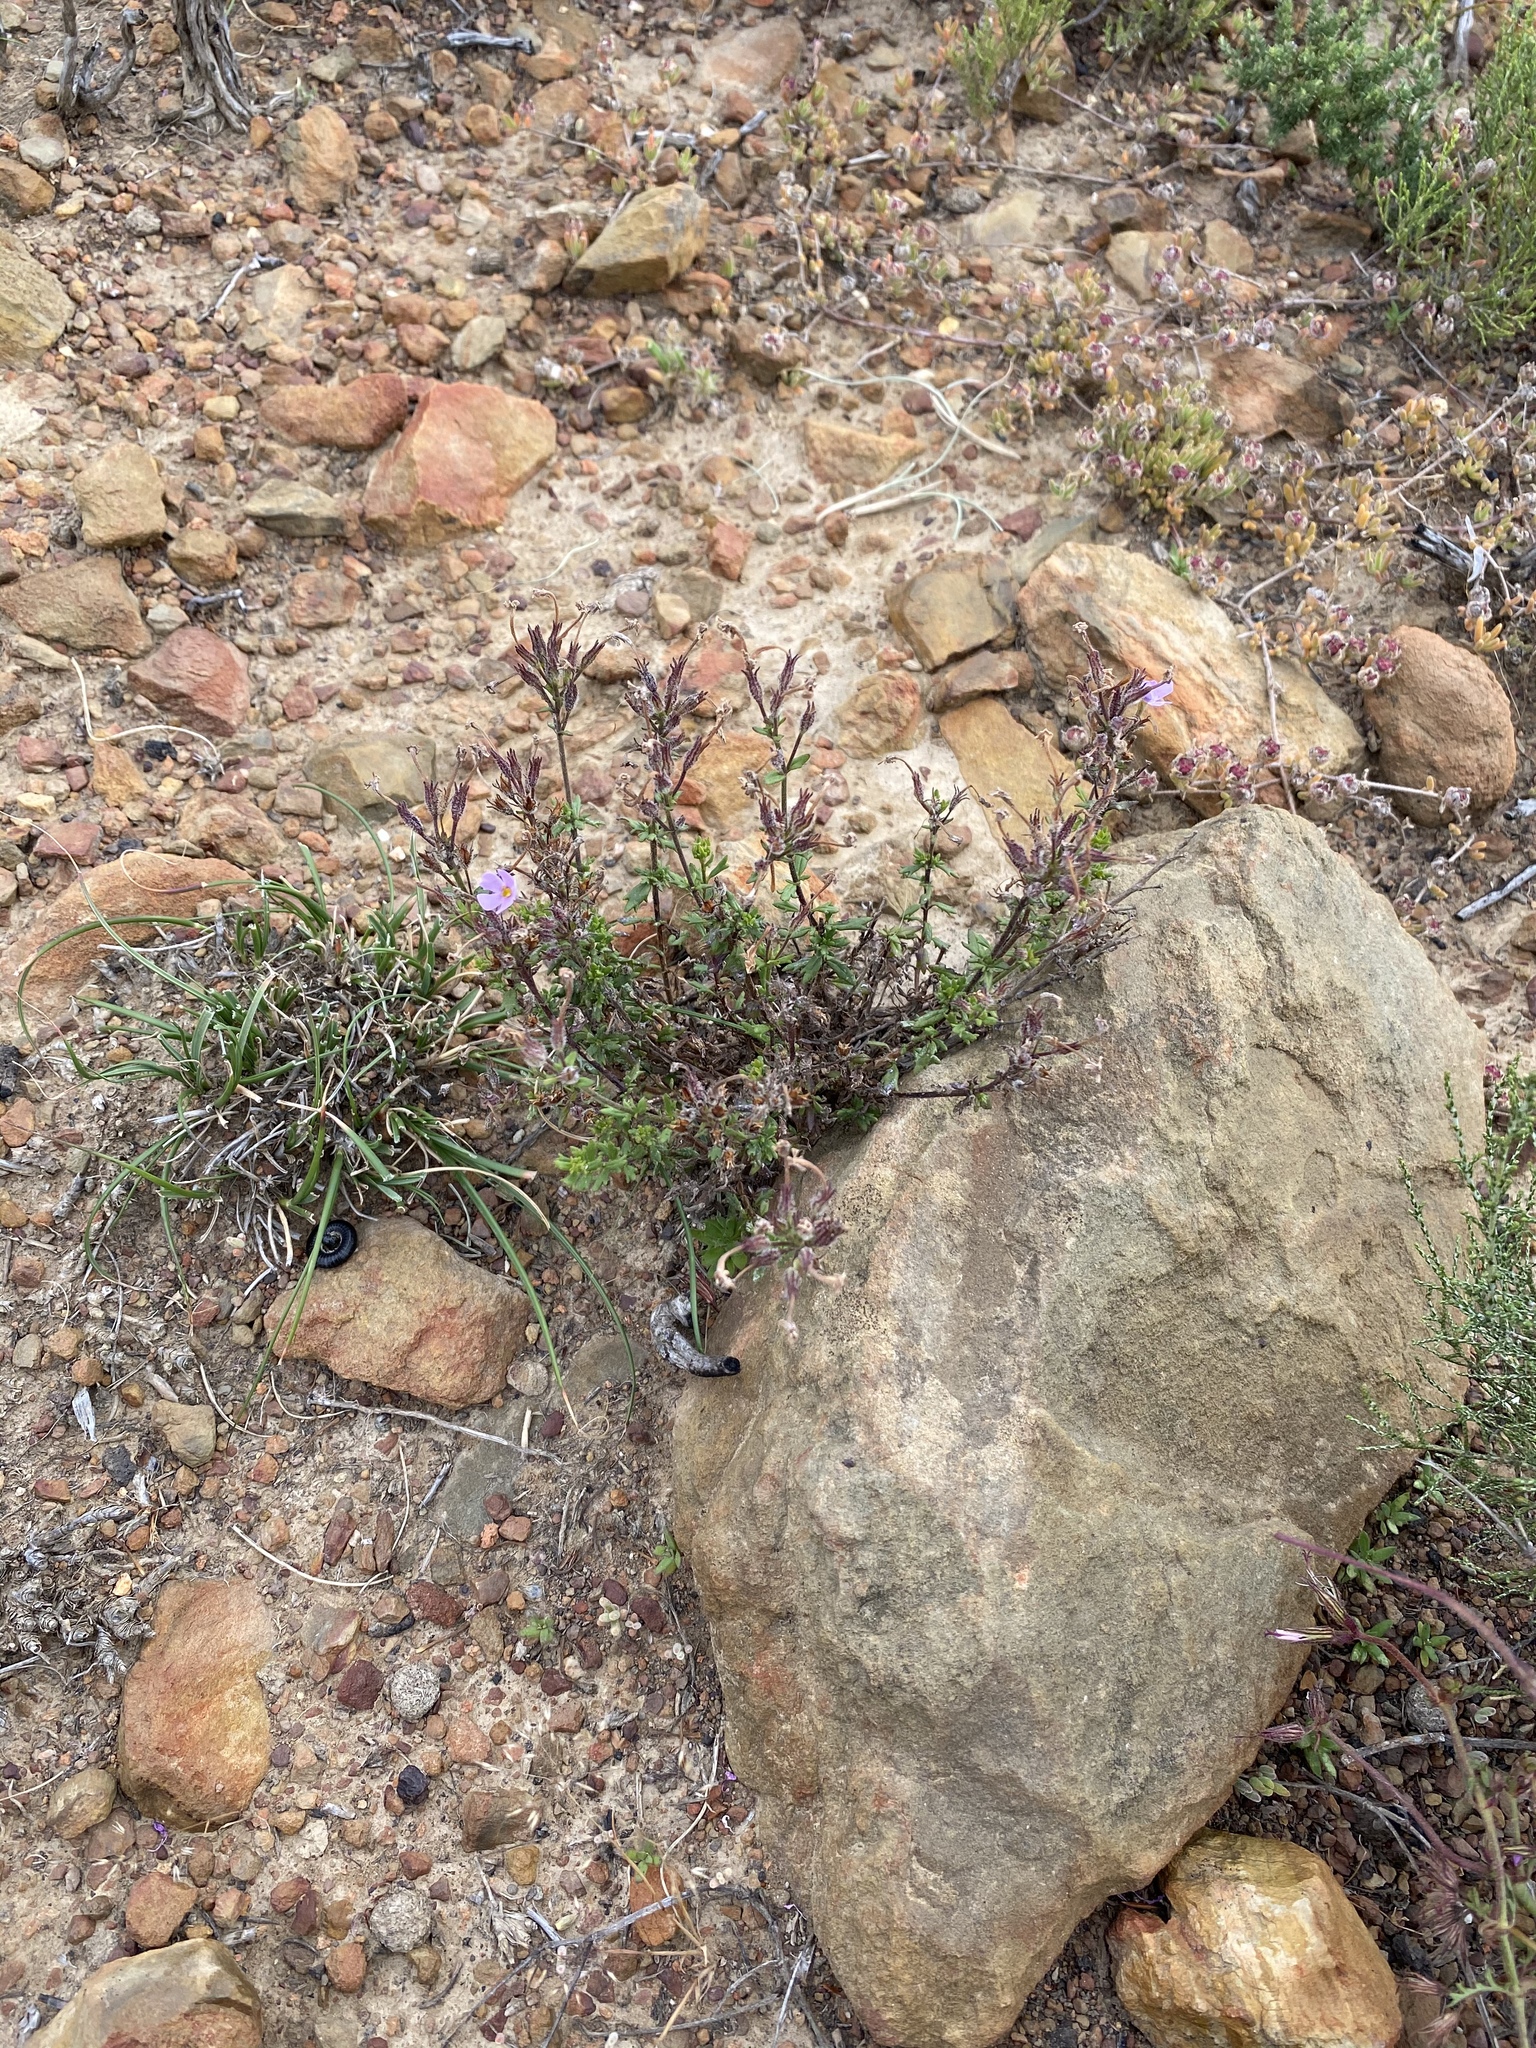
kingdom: Plantae
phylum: Tracheophyta
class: Liliopsida
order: Asparagales
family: Tecophilaeaceae
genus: Cyanella
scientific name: Cyanella hyacinthoides
